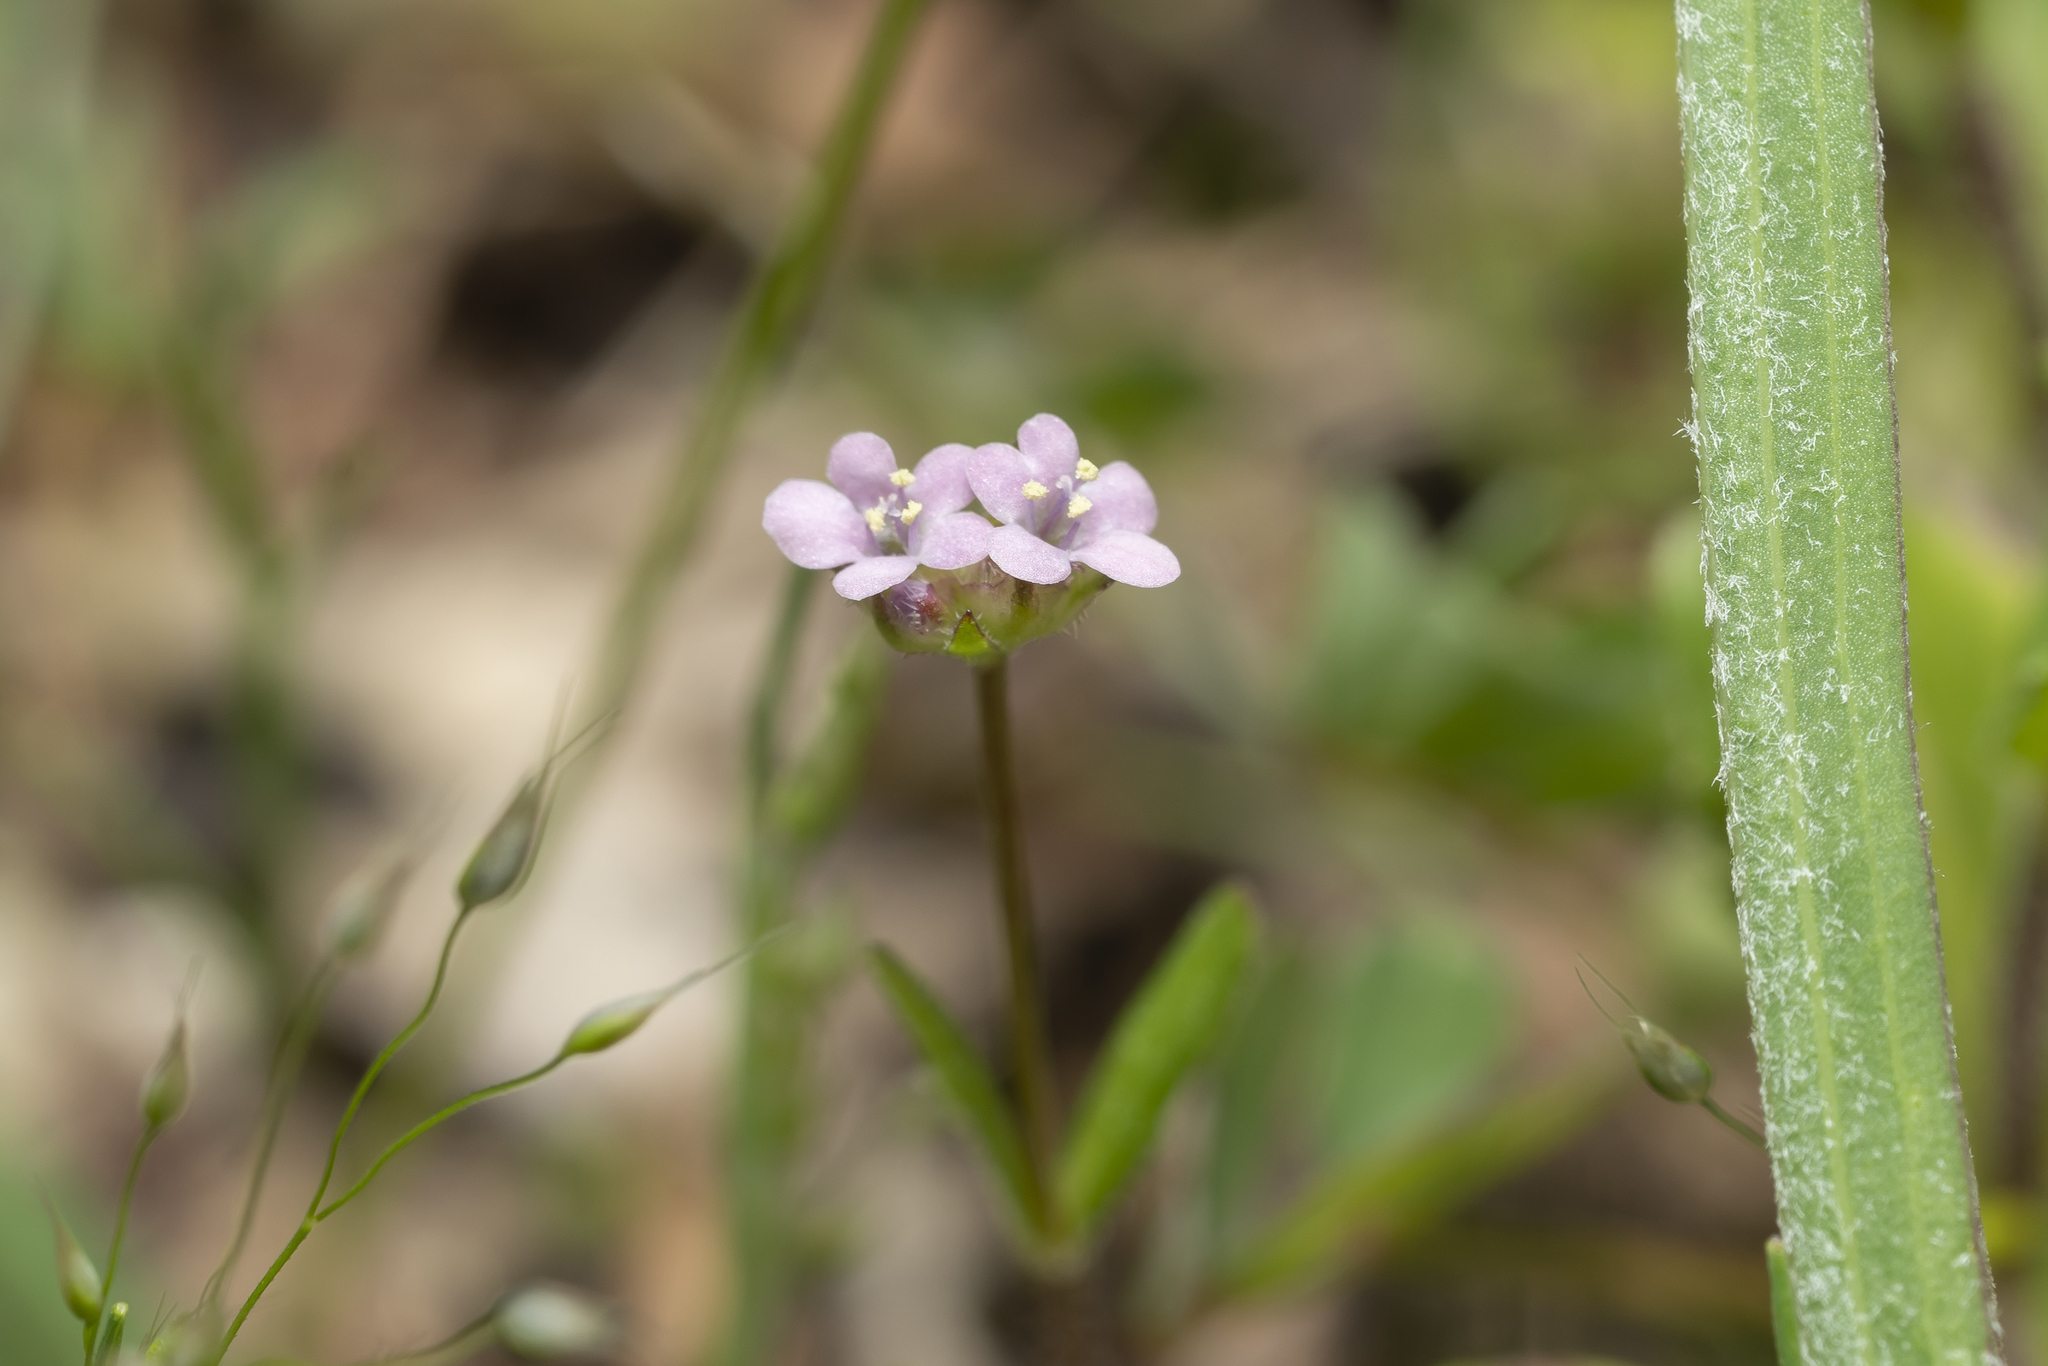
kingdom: Plantae
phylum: Tracheophyta
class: Magnoliopsida
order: Dipsacales
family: Caprifoliaceae
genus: Valerianella
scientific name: Valerianella
